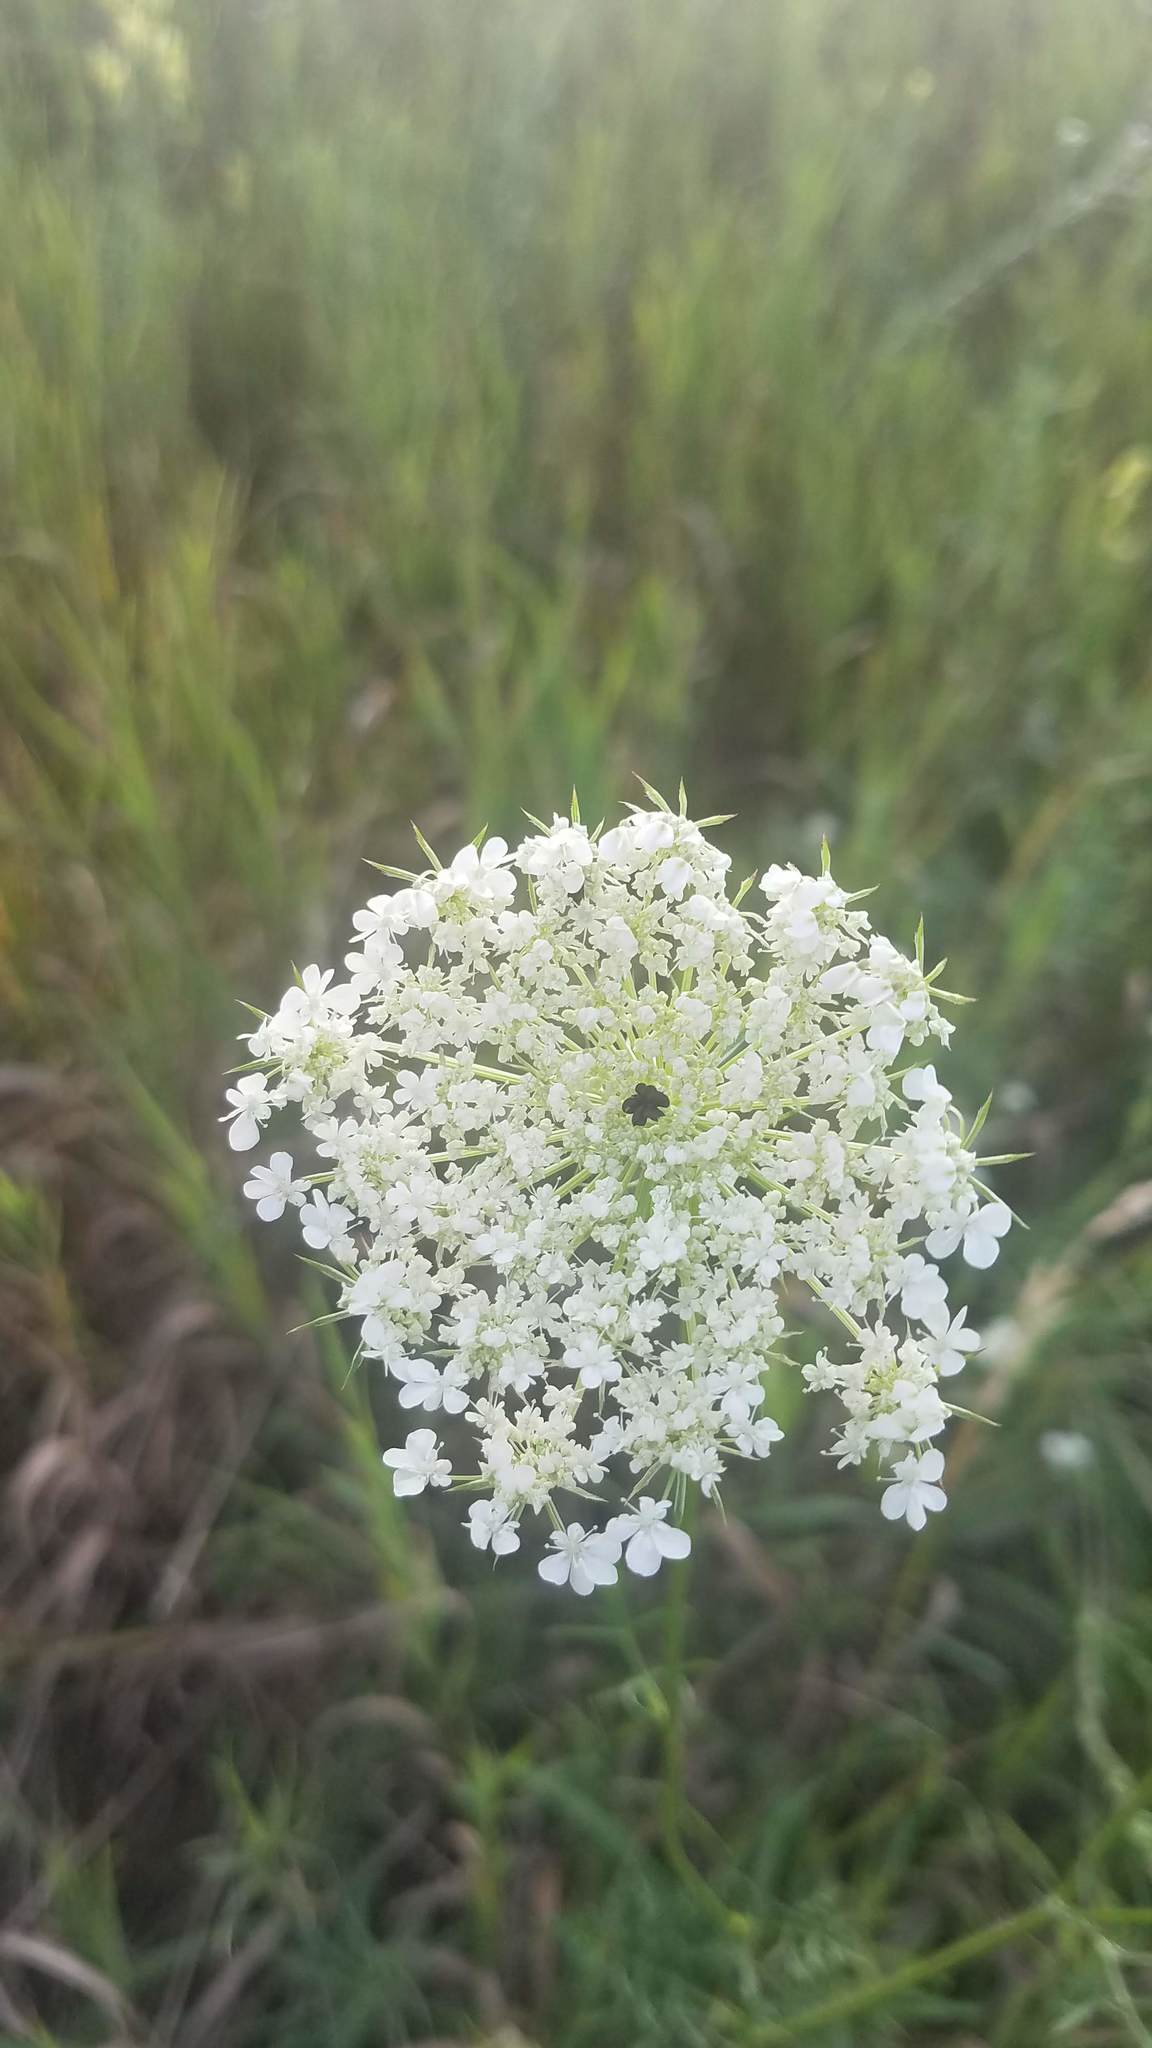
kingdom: Plantae
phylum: Tracheophyta
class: Magnoliopsida
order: Apiales
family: Apiaceae
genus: Daucus
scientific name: Daucus carota
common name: Wild carrot
